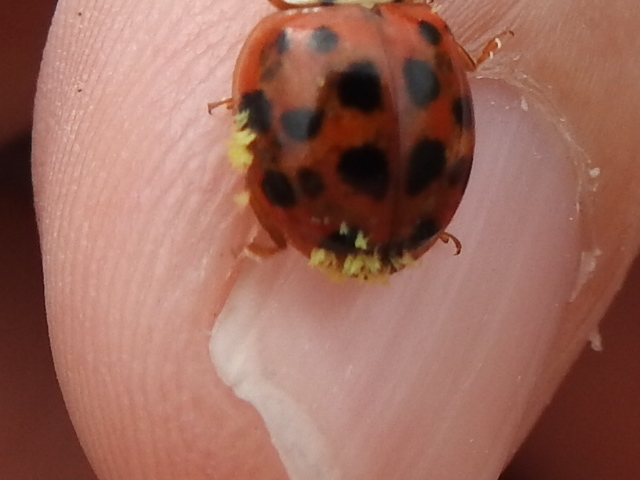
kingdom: Fungi
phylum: Ascomycota
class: Laboulbeniomycetes
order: Laboulbeniales
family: Laboulbeniaceae
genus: Hesperomyces
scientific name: Hesperomyces harmoniae
